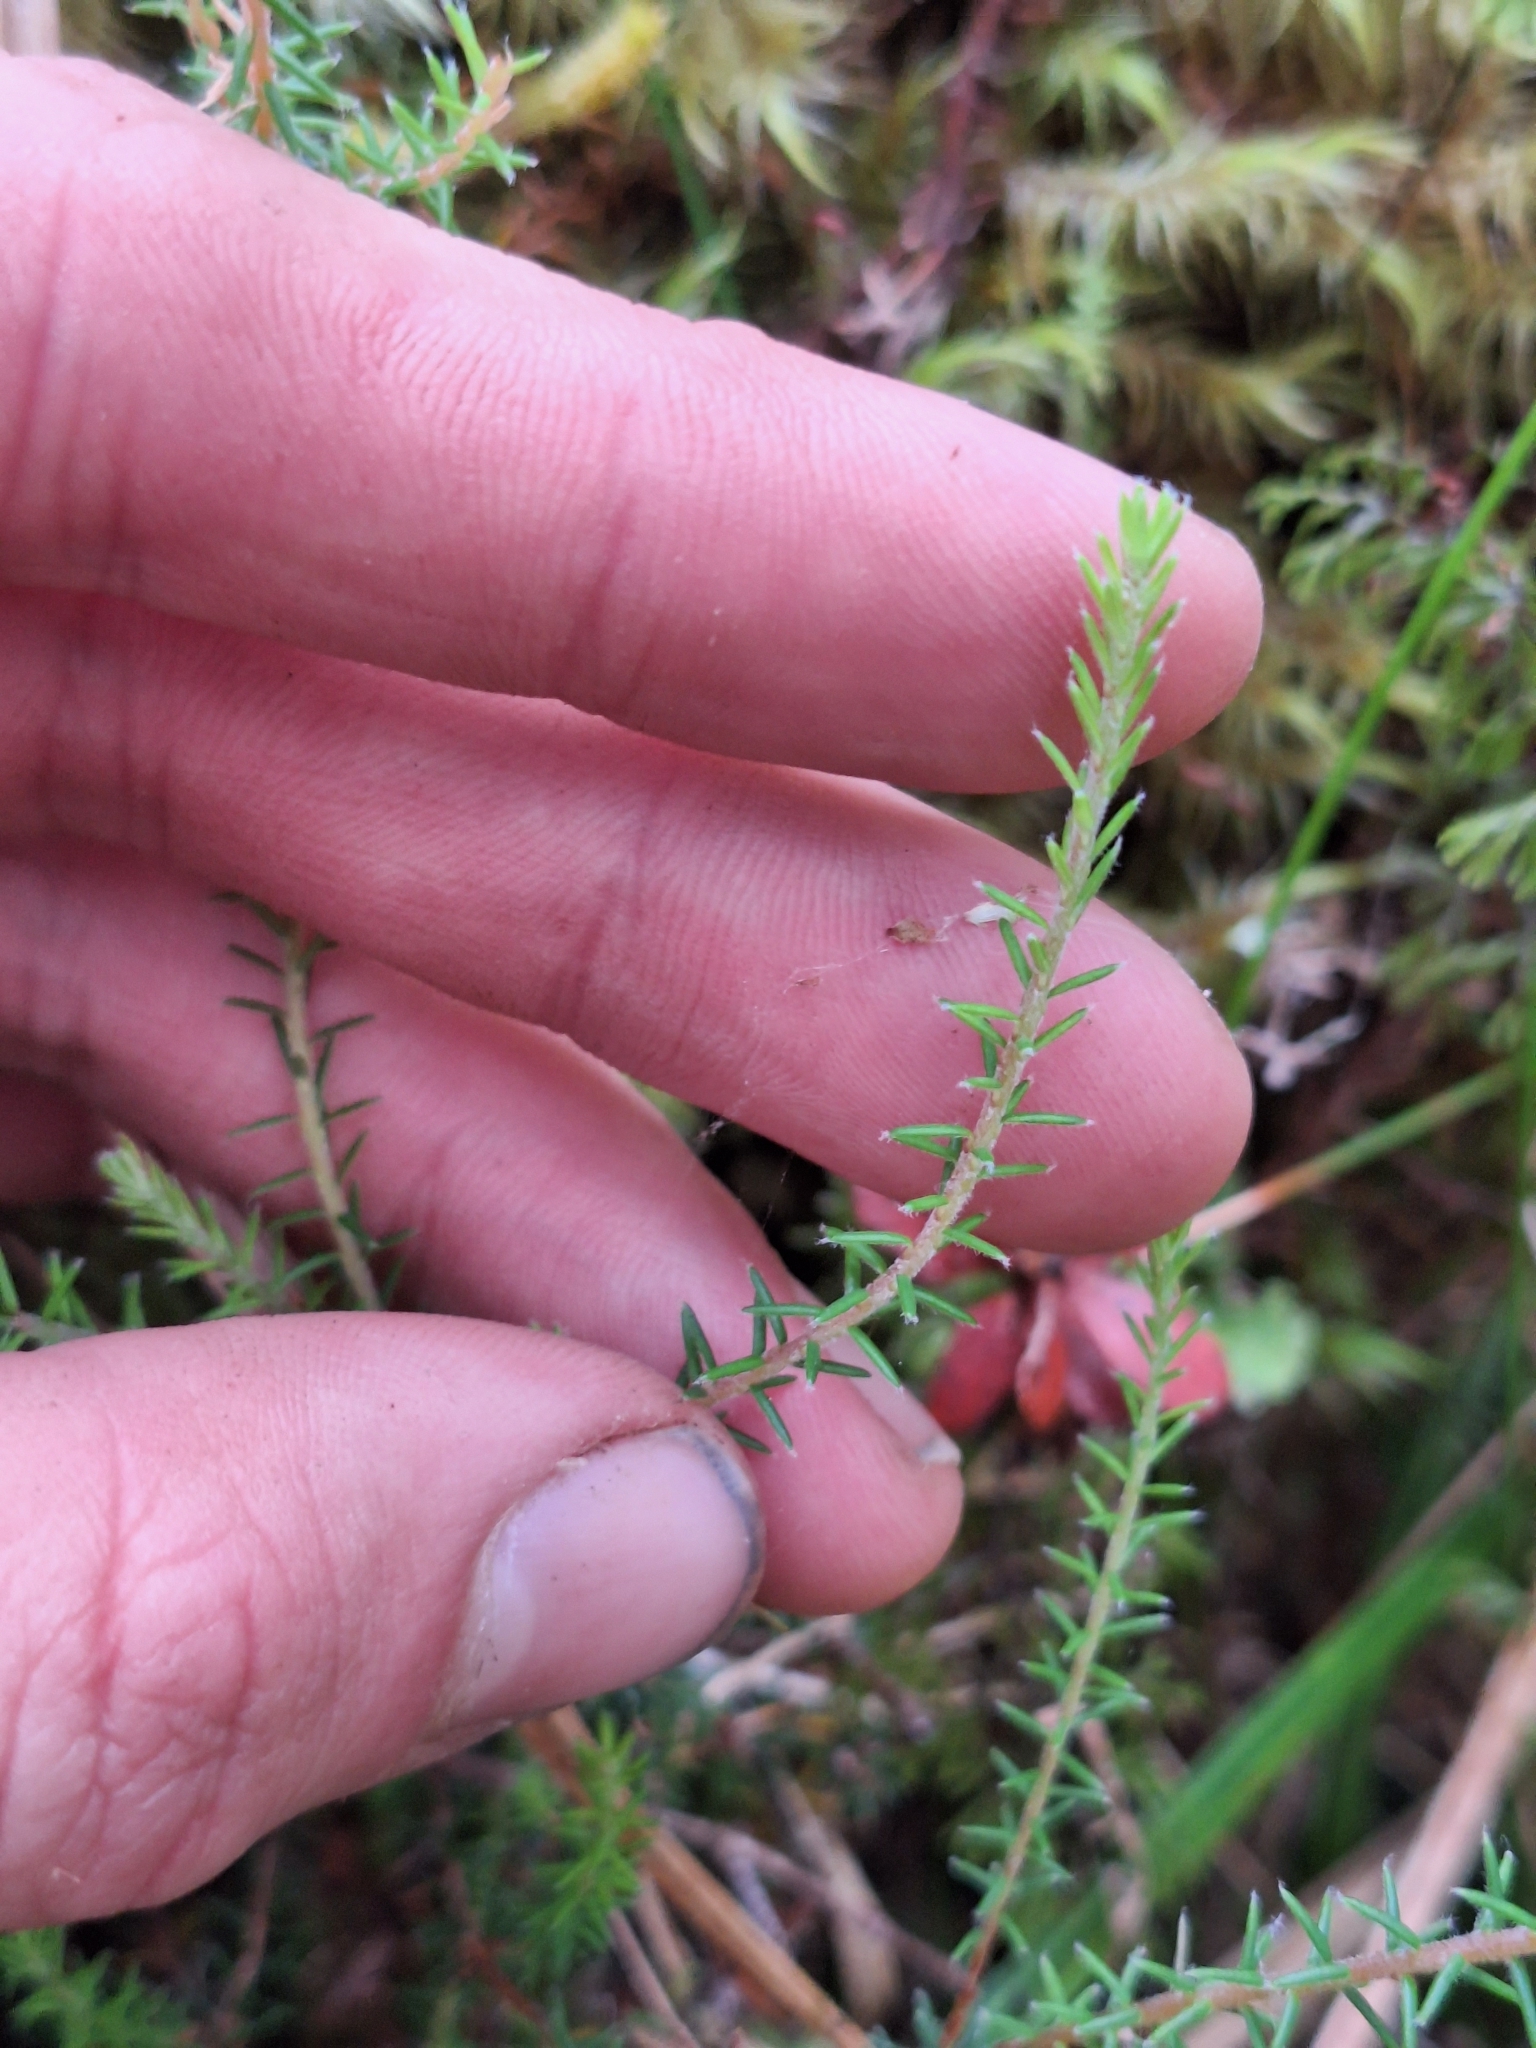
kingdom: Plantae
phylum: Tracheophyta
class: Magnoliopsida
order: Ericales
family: Ericaceae
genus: Androstoma
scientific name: Androstoma empetrifolia
